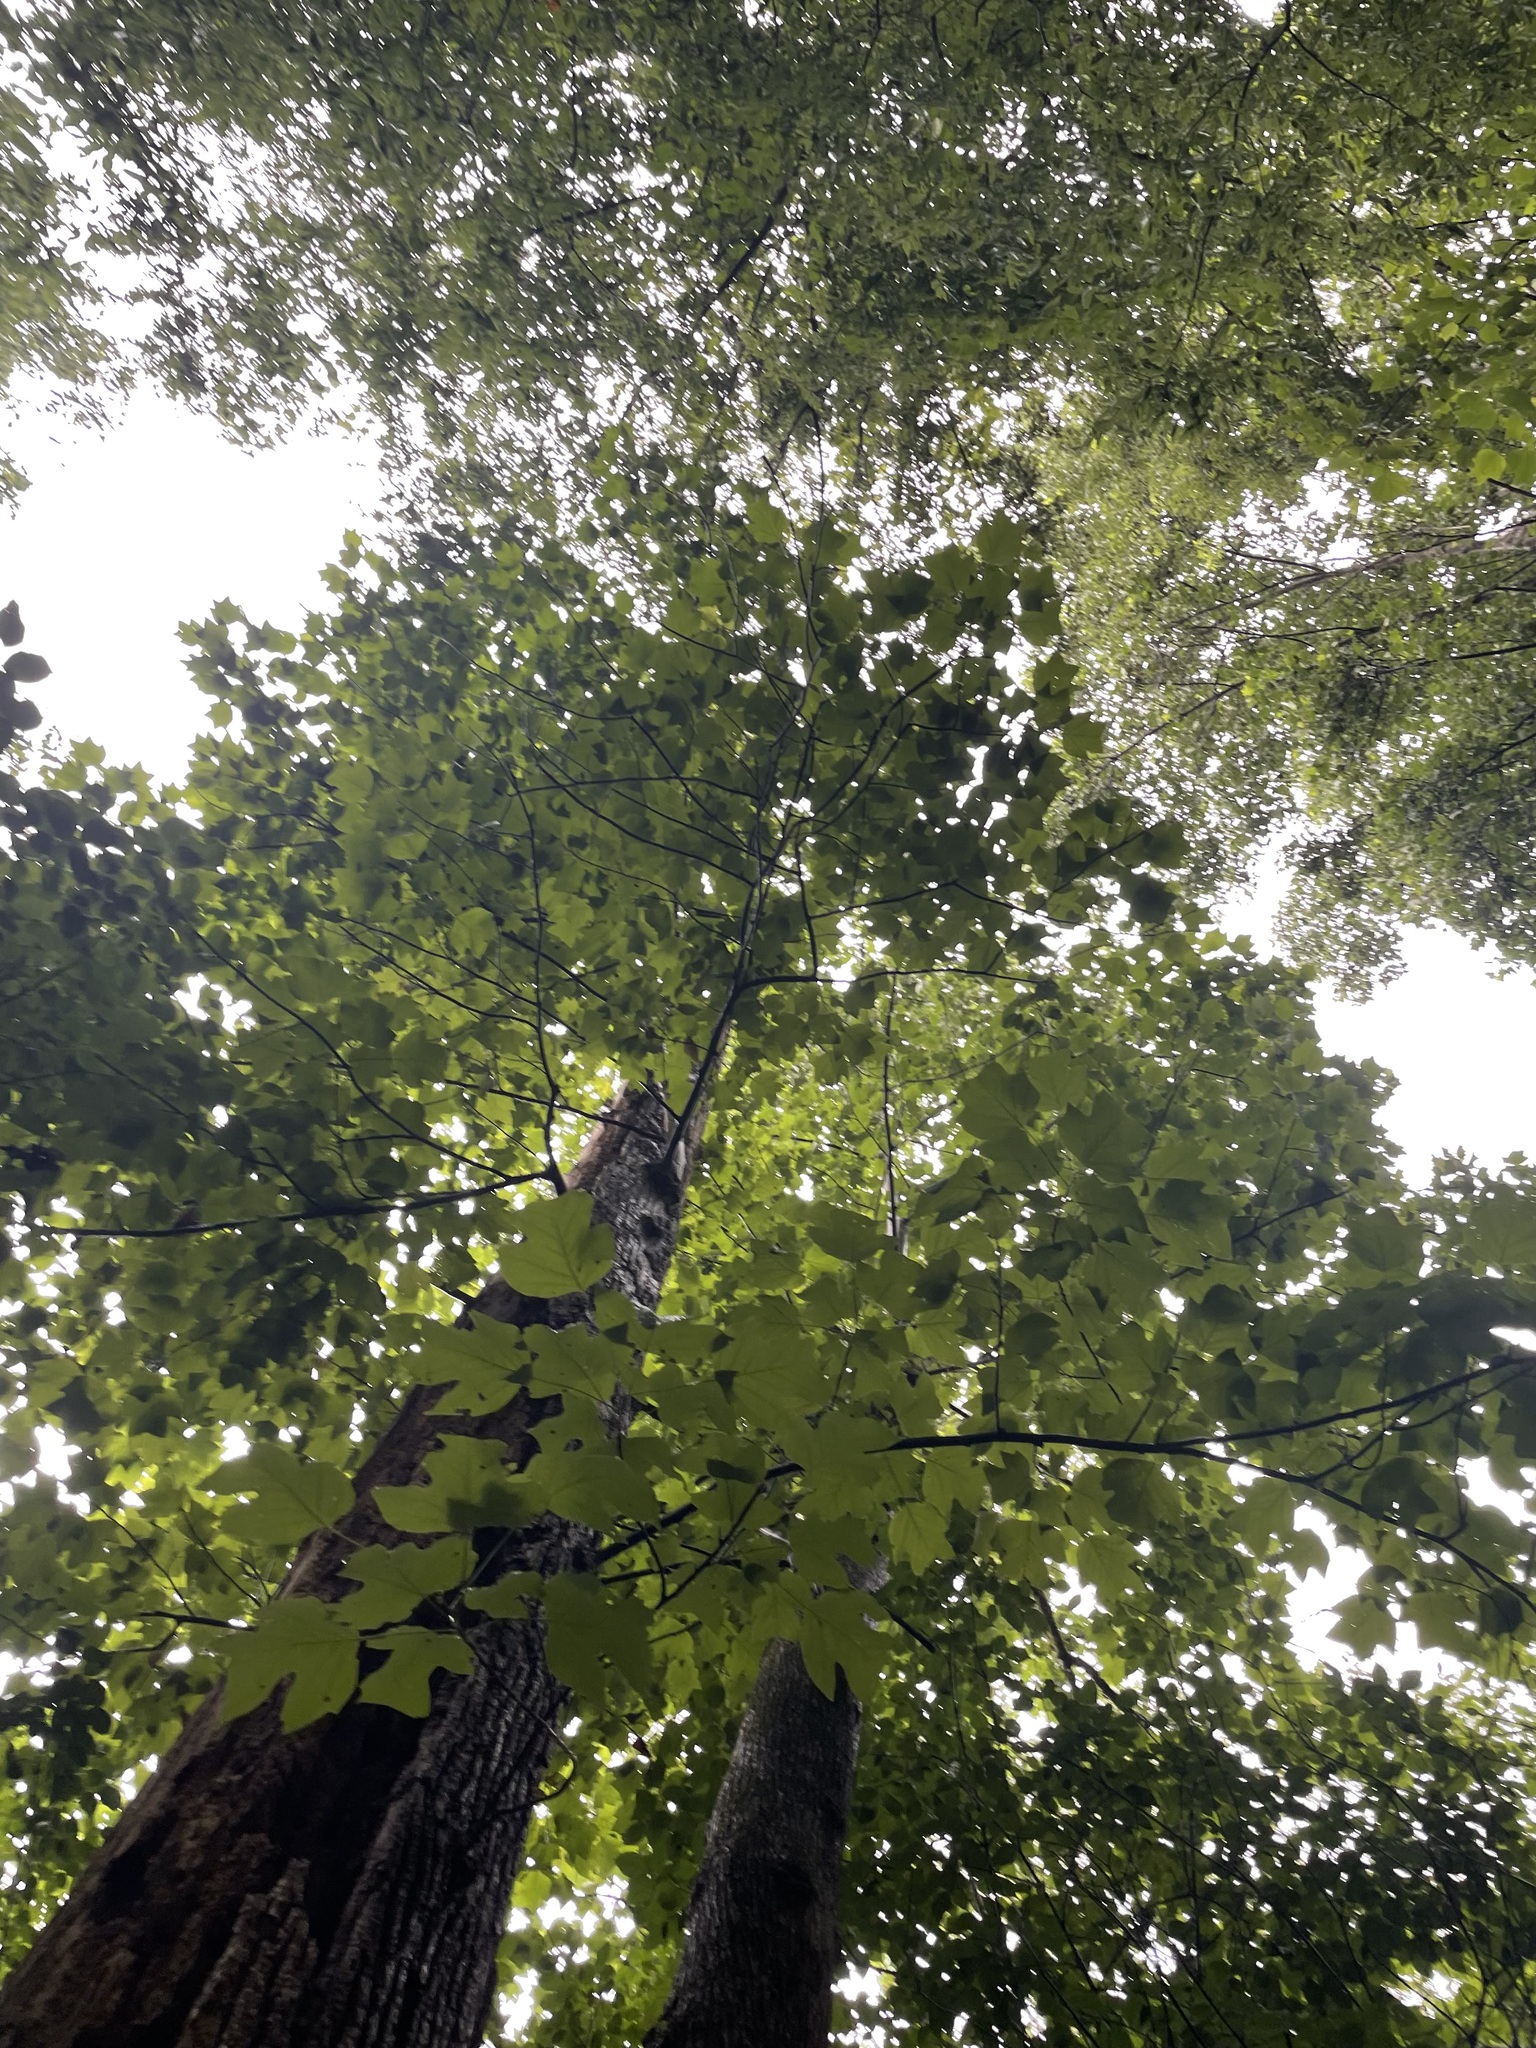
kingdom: Plantae
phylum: Tracheophyta
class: Magnoliopsida
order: Magnoliales
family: Magnoliaceae
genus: Liriodendron
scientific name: Liriodendron tulipifera
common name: Tulip tree
